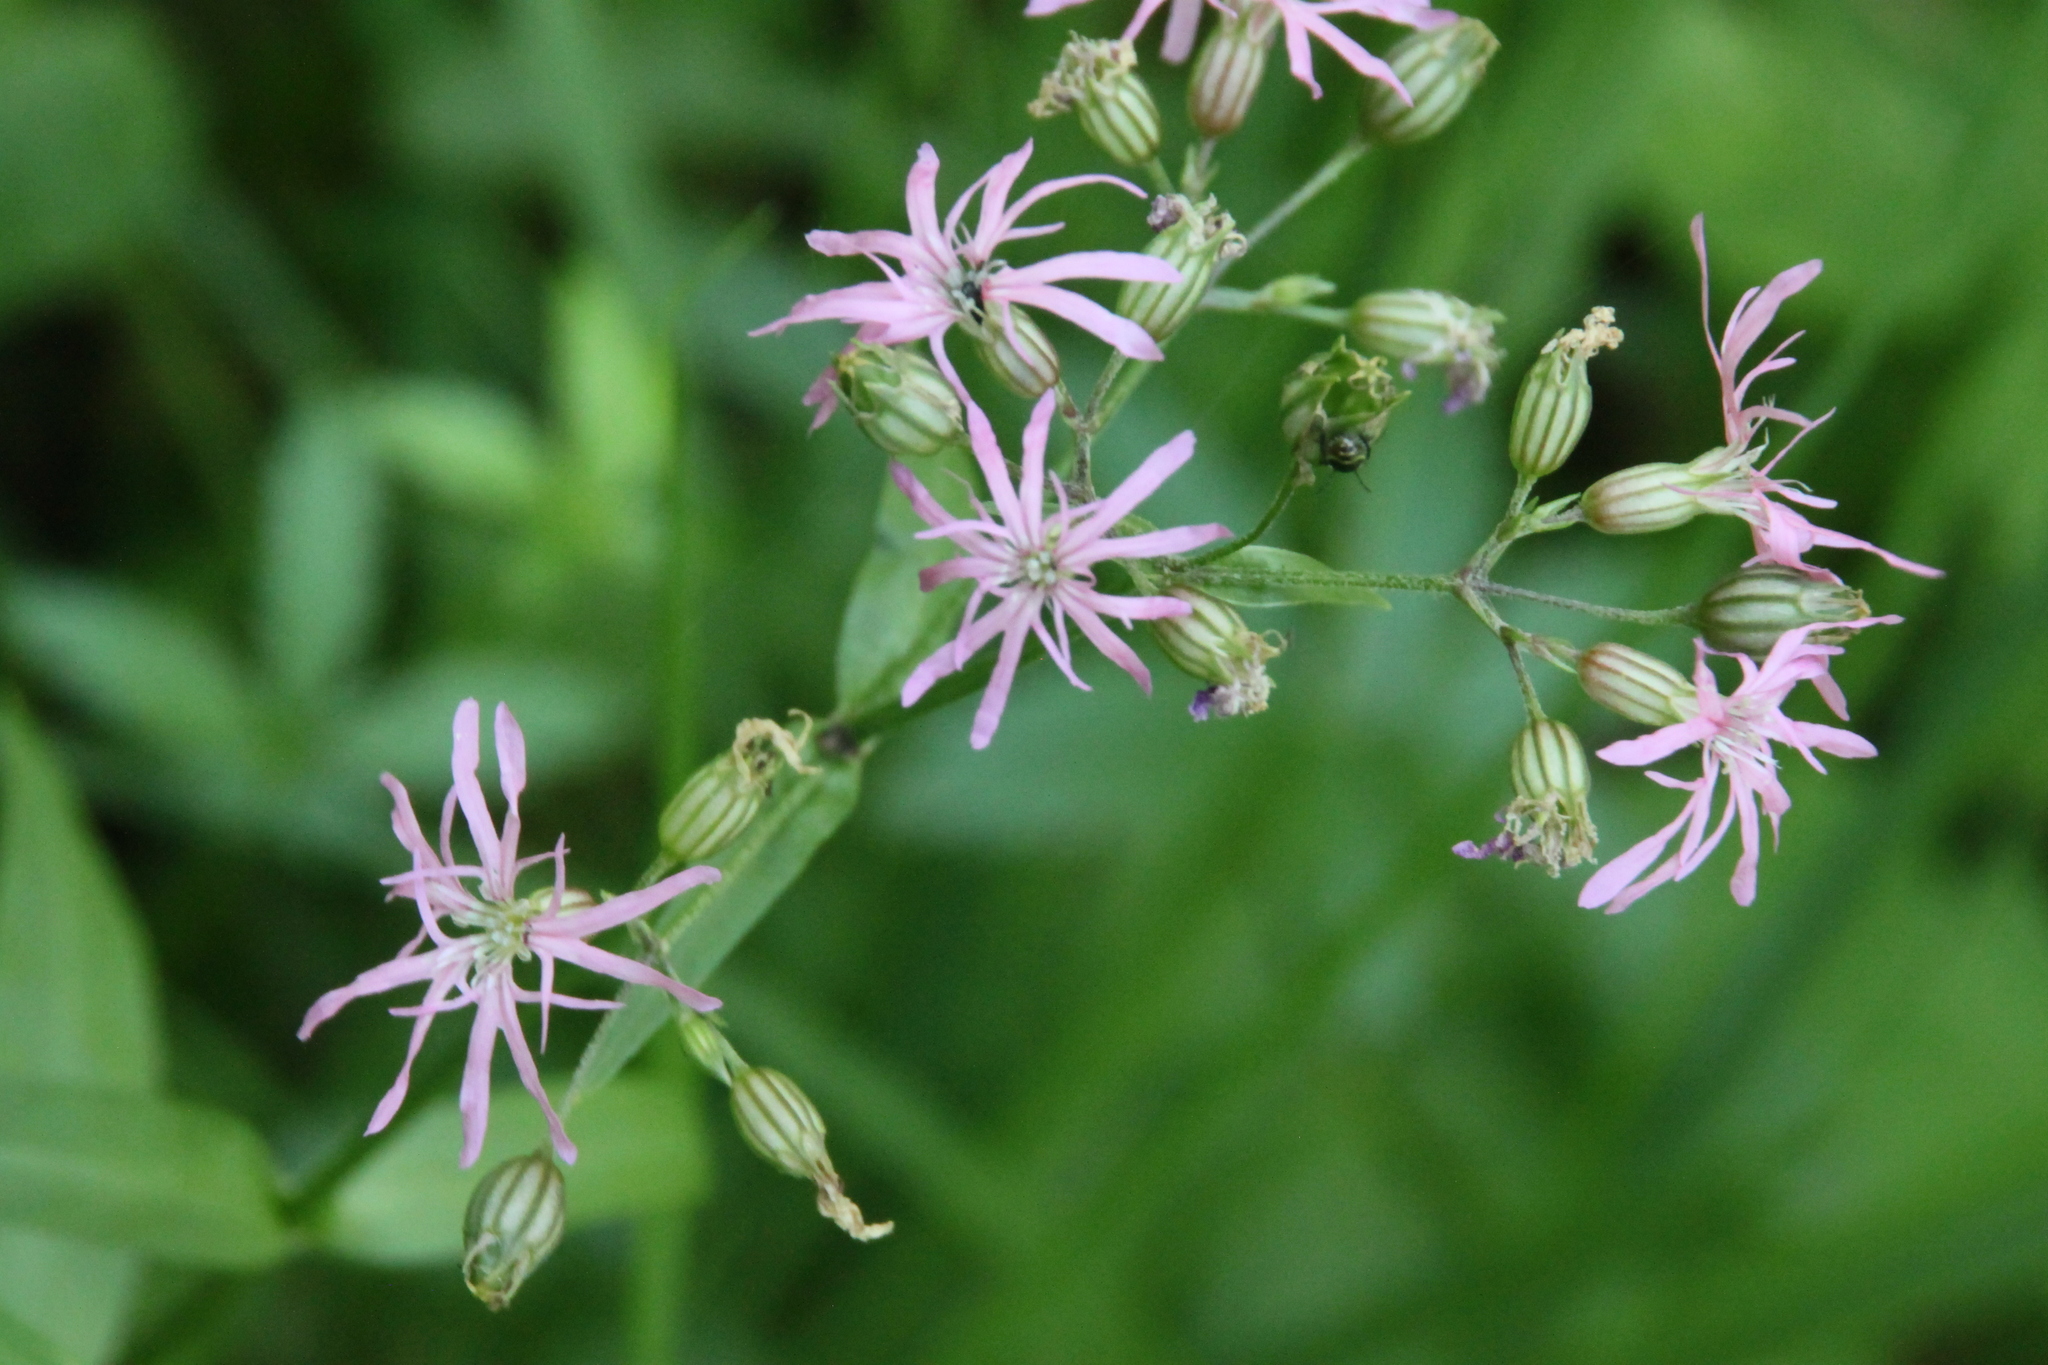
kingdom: Plantae
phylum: Tracheophyta
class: Magnoliopsida
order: Caryophyllales
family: Caryophyllaceae
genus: Silene
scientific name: Silene flos-cuculi
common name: Ragged-robin
